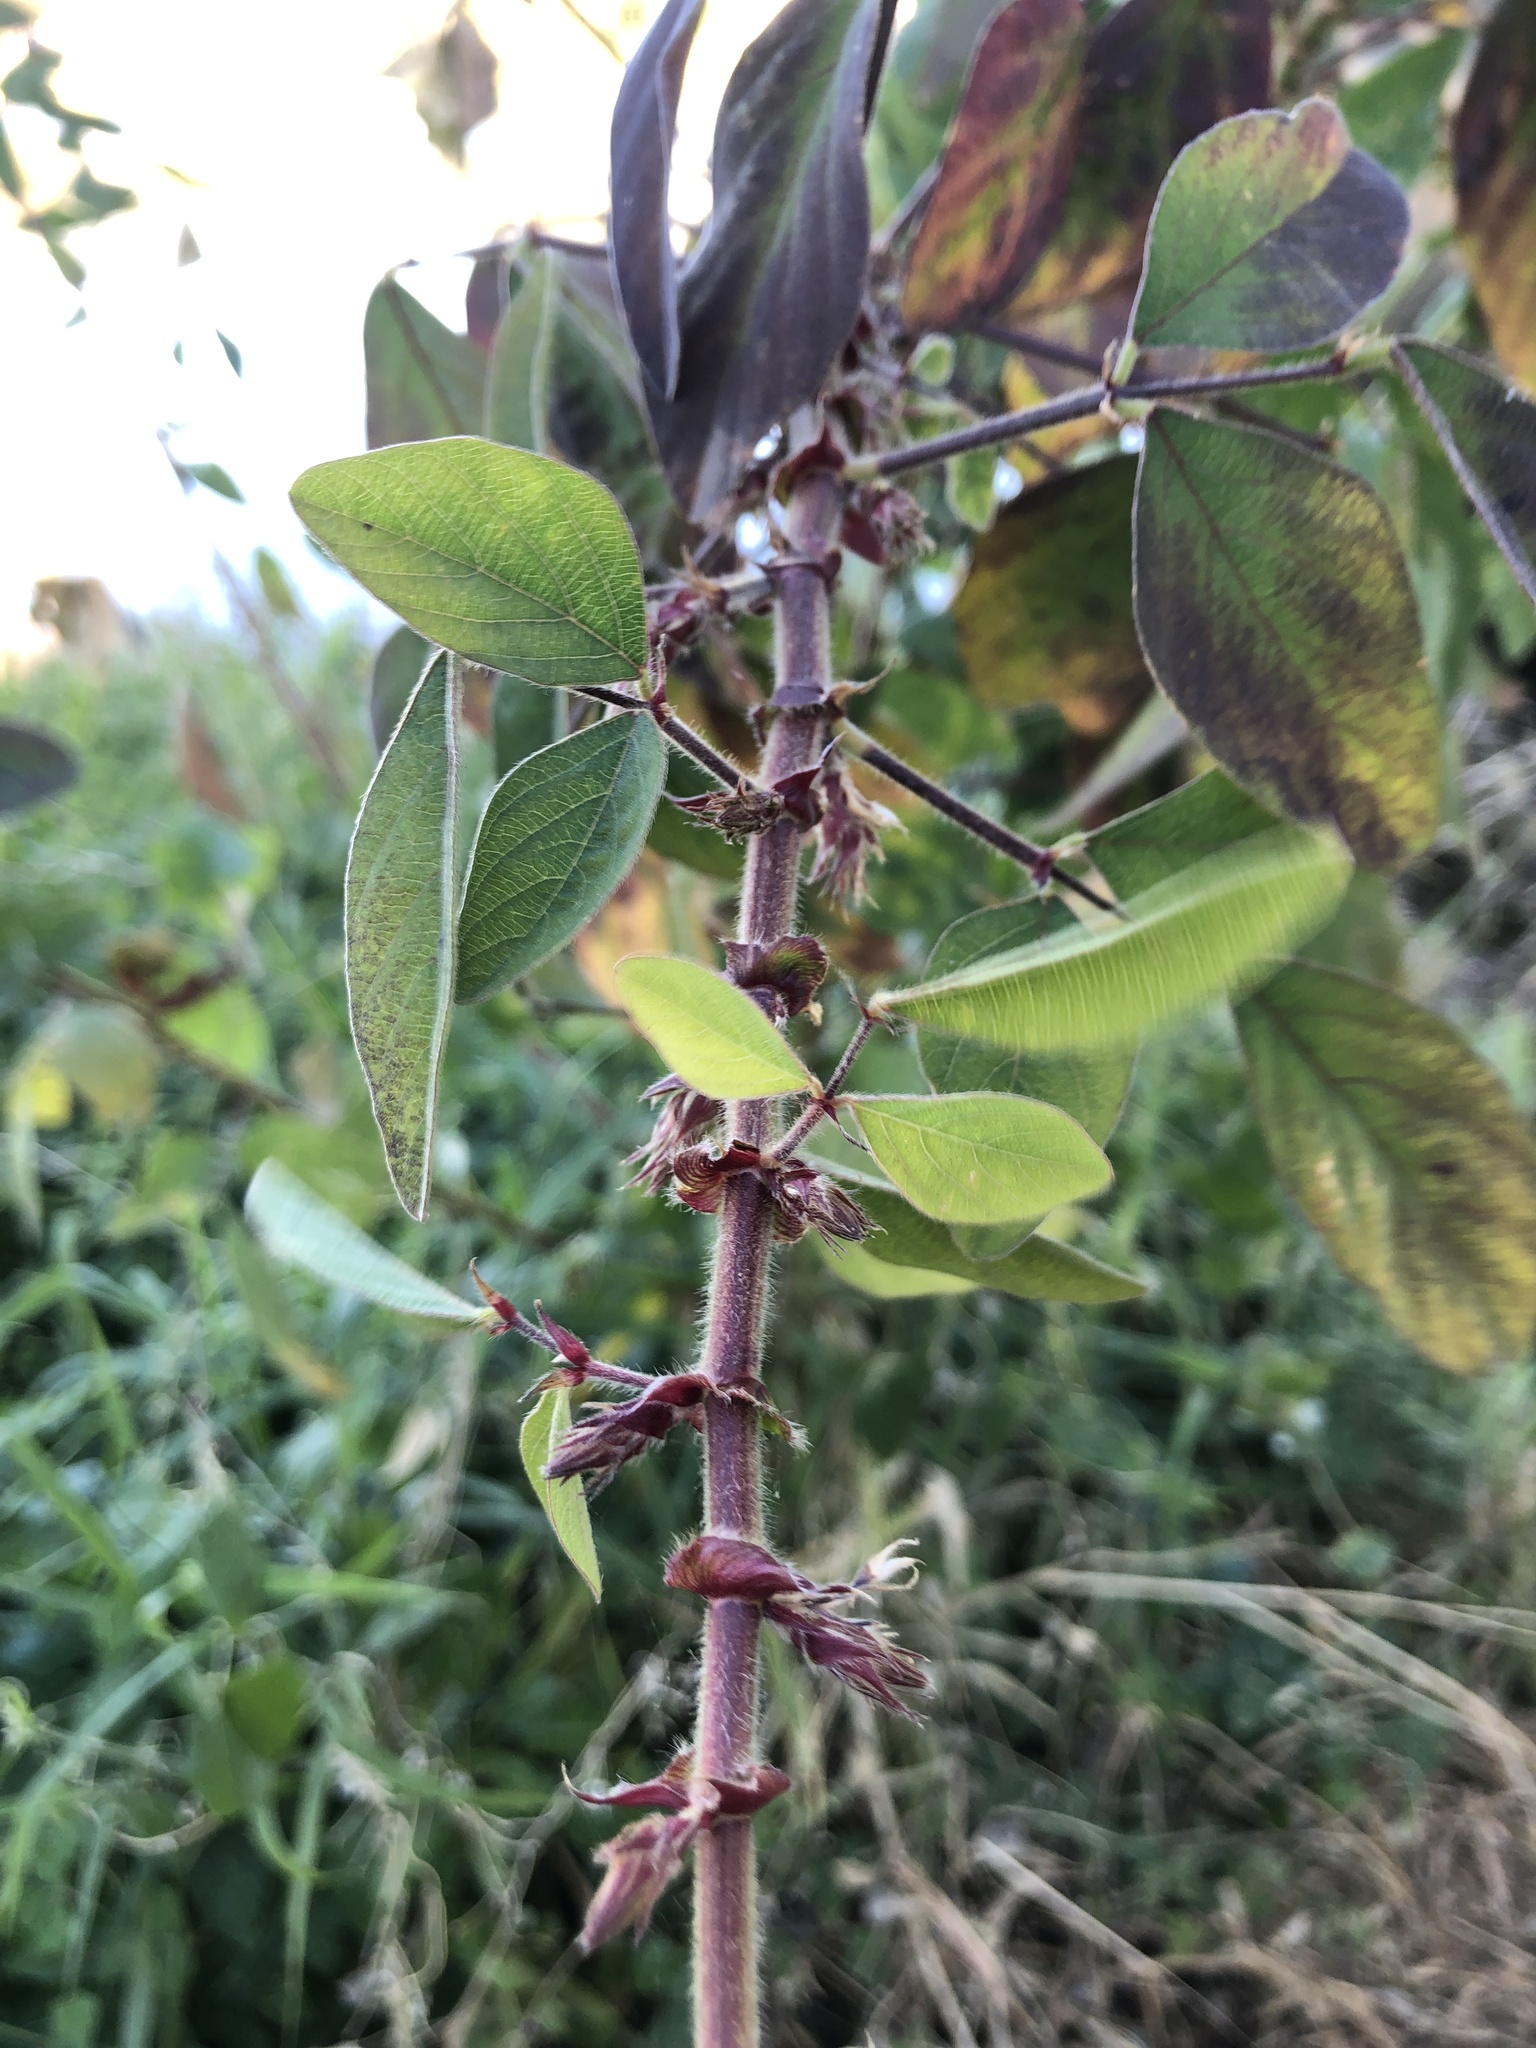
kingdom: Plantae
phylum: Tracheophyta
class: Magnoliopsida
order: Fabales
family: Fabaceae
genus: Desmodium
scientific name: Desmodium tortuosum
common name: Dixie ticktrefoil
